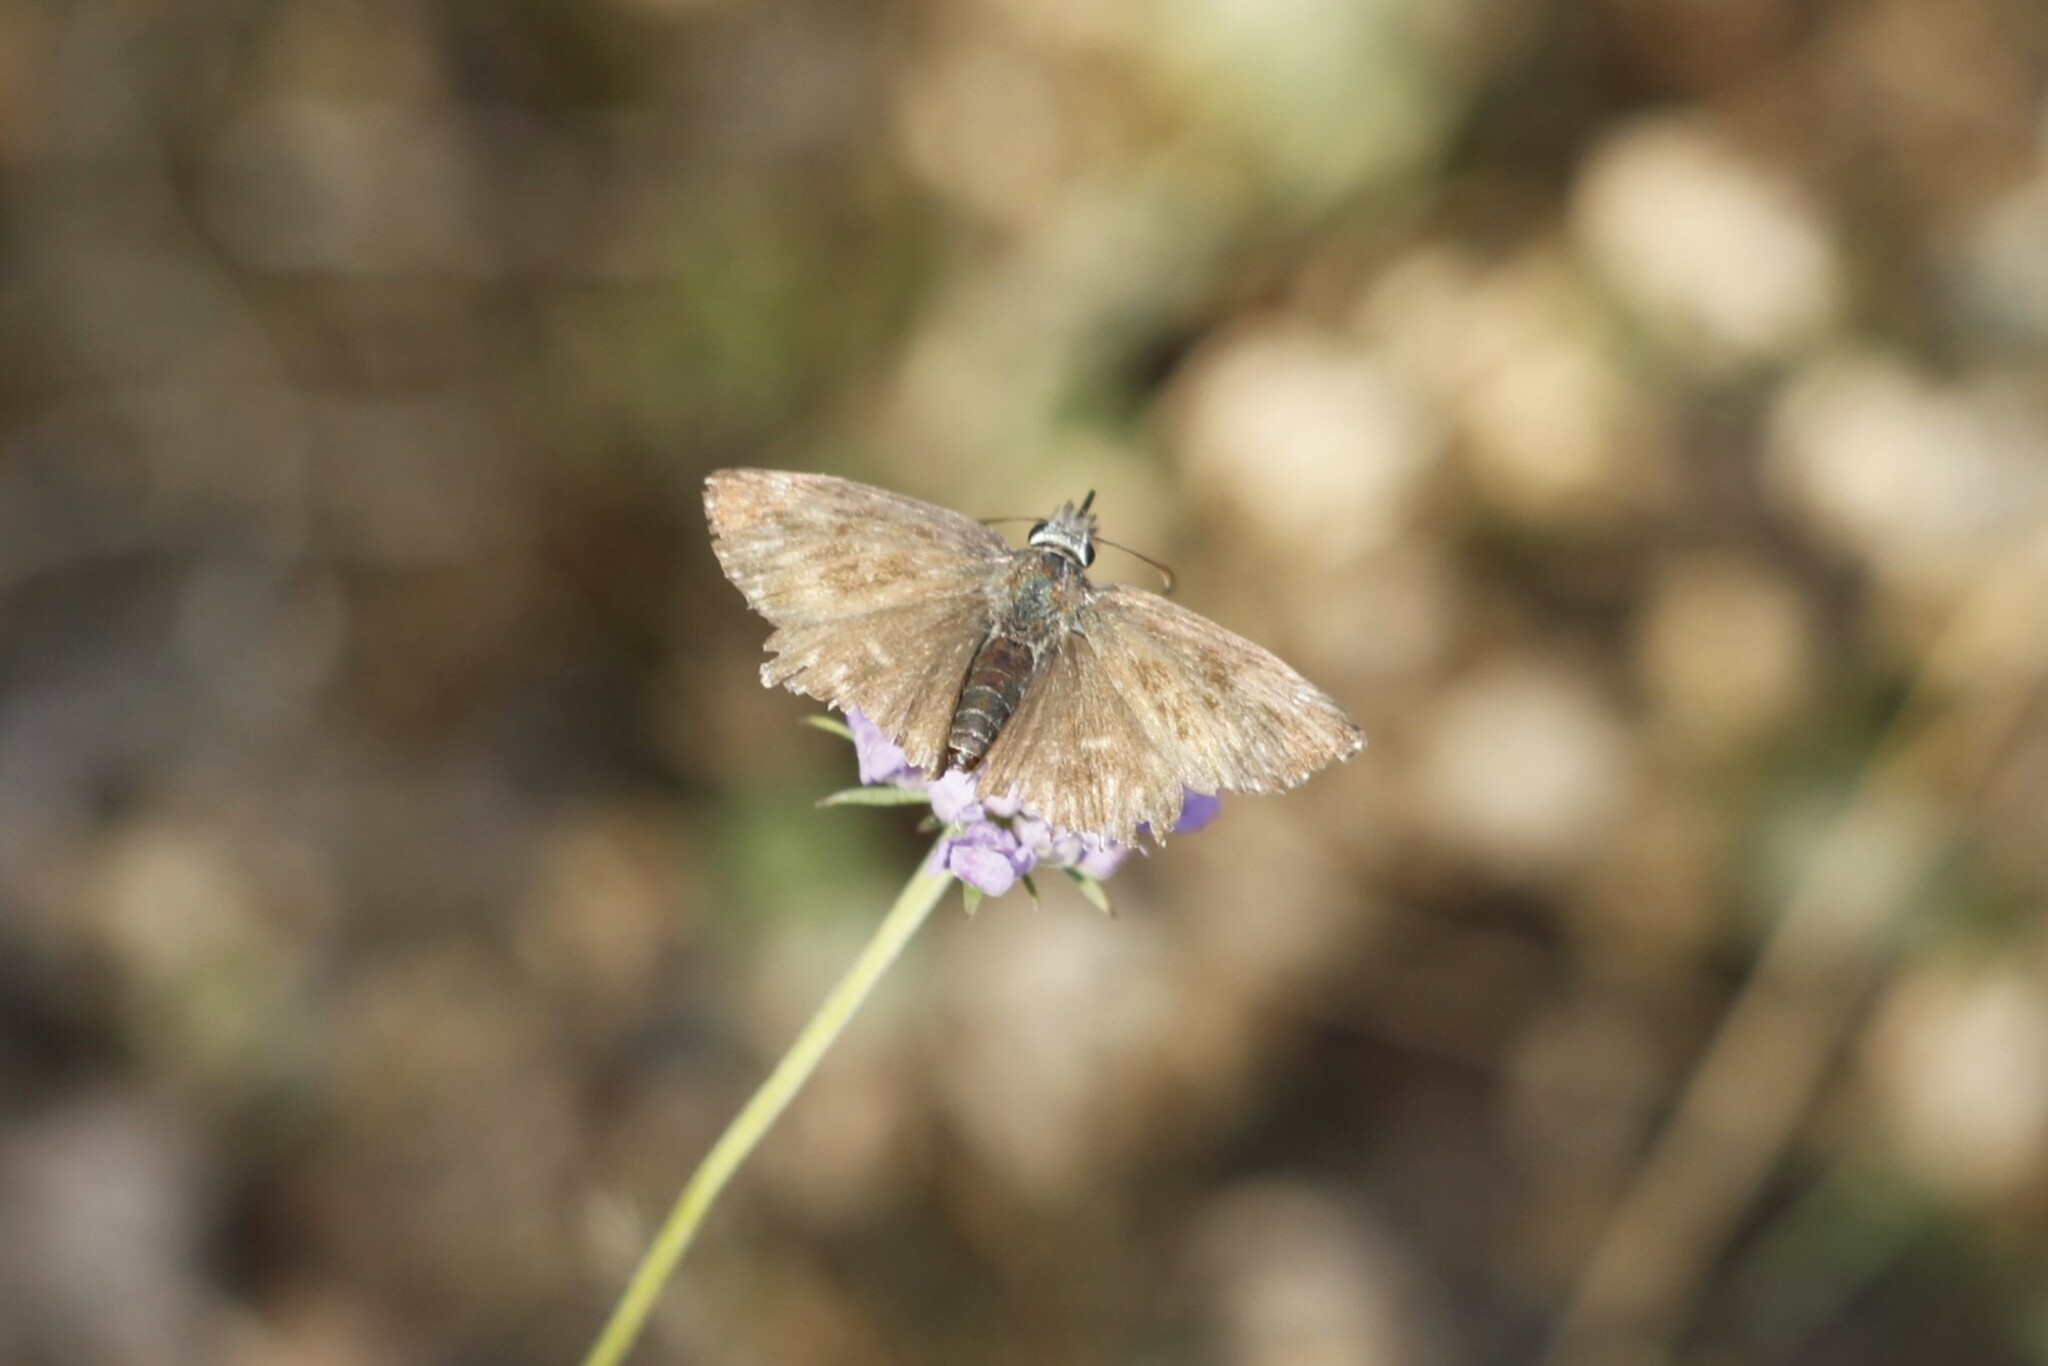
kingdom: Animalia
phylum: Arthropoda
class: Insecta
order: Lepidoptera
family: Hesperiidae
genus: Erynnis
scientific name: Erynnis tages
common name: Dingy skipper
